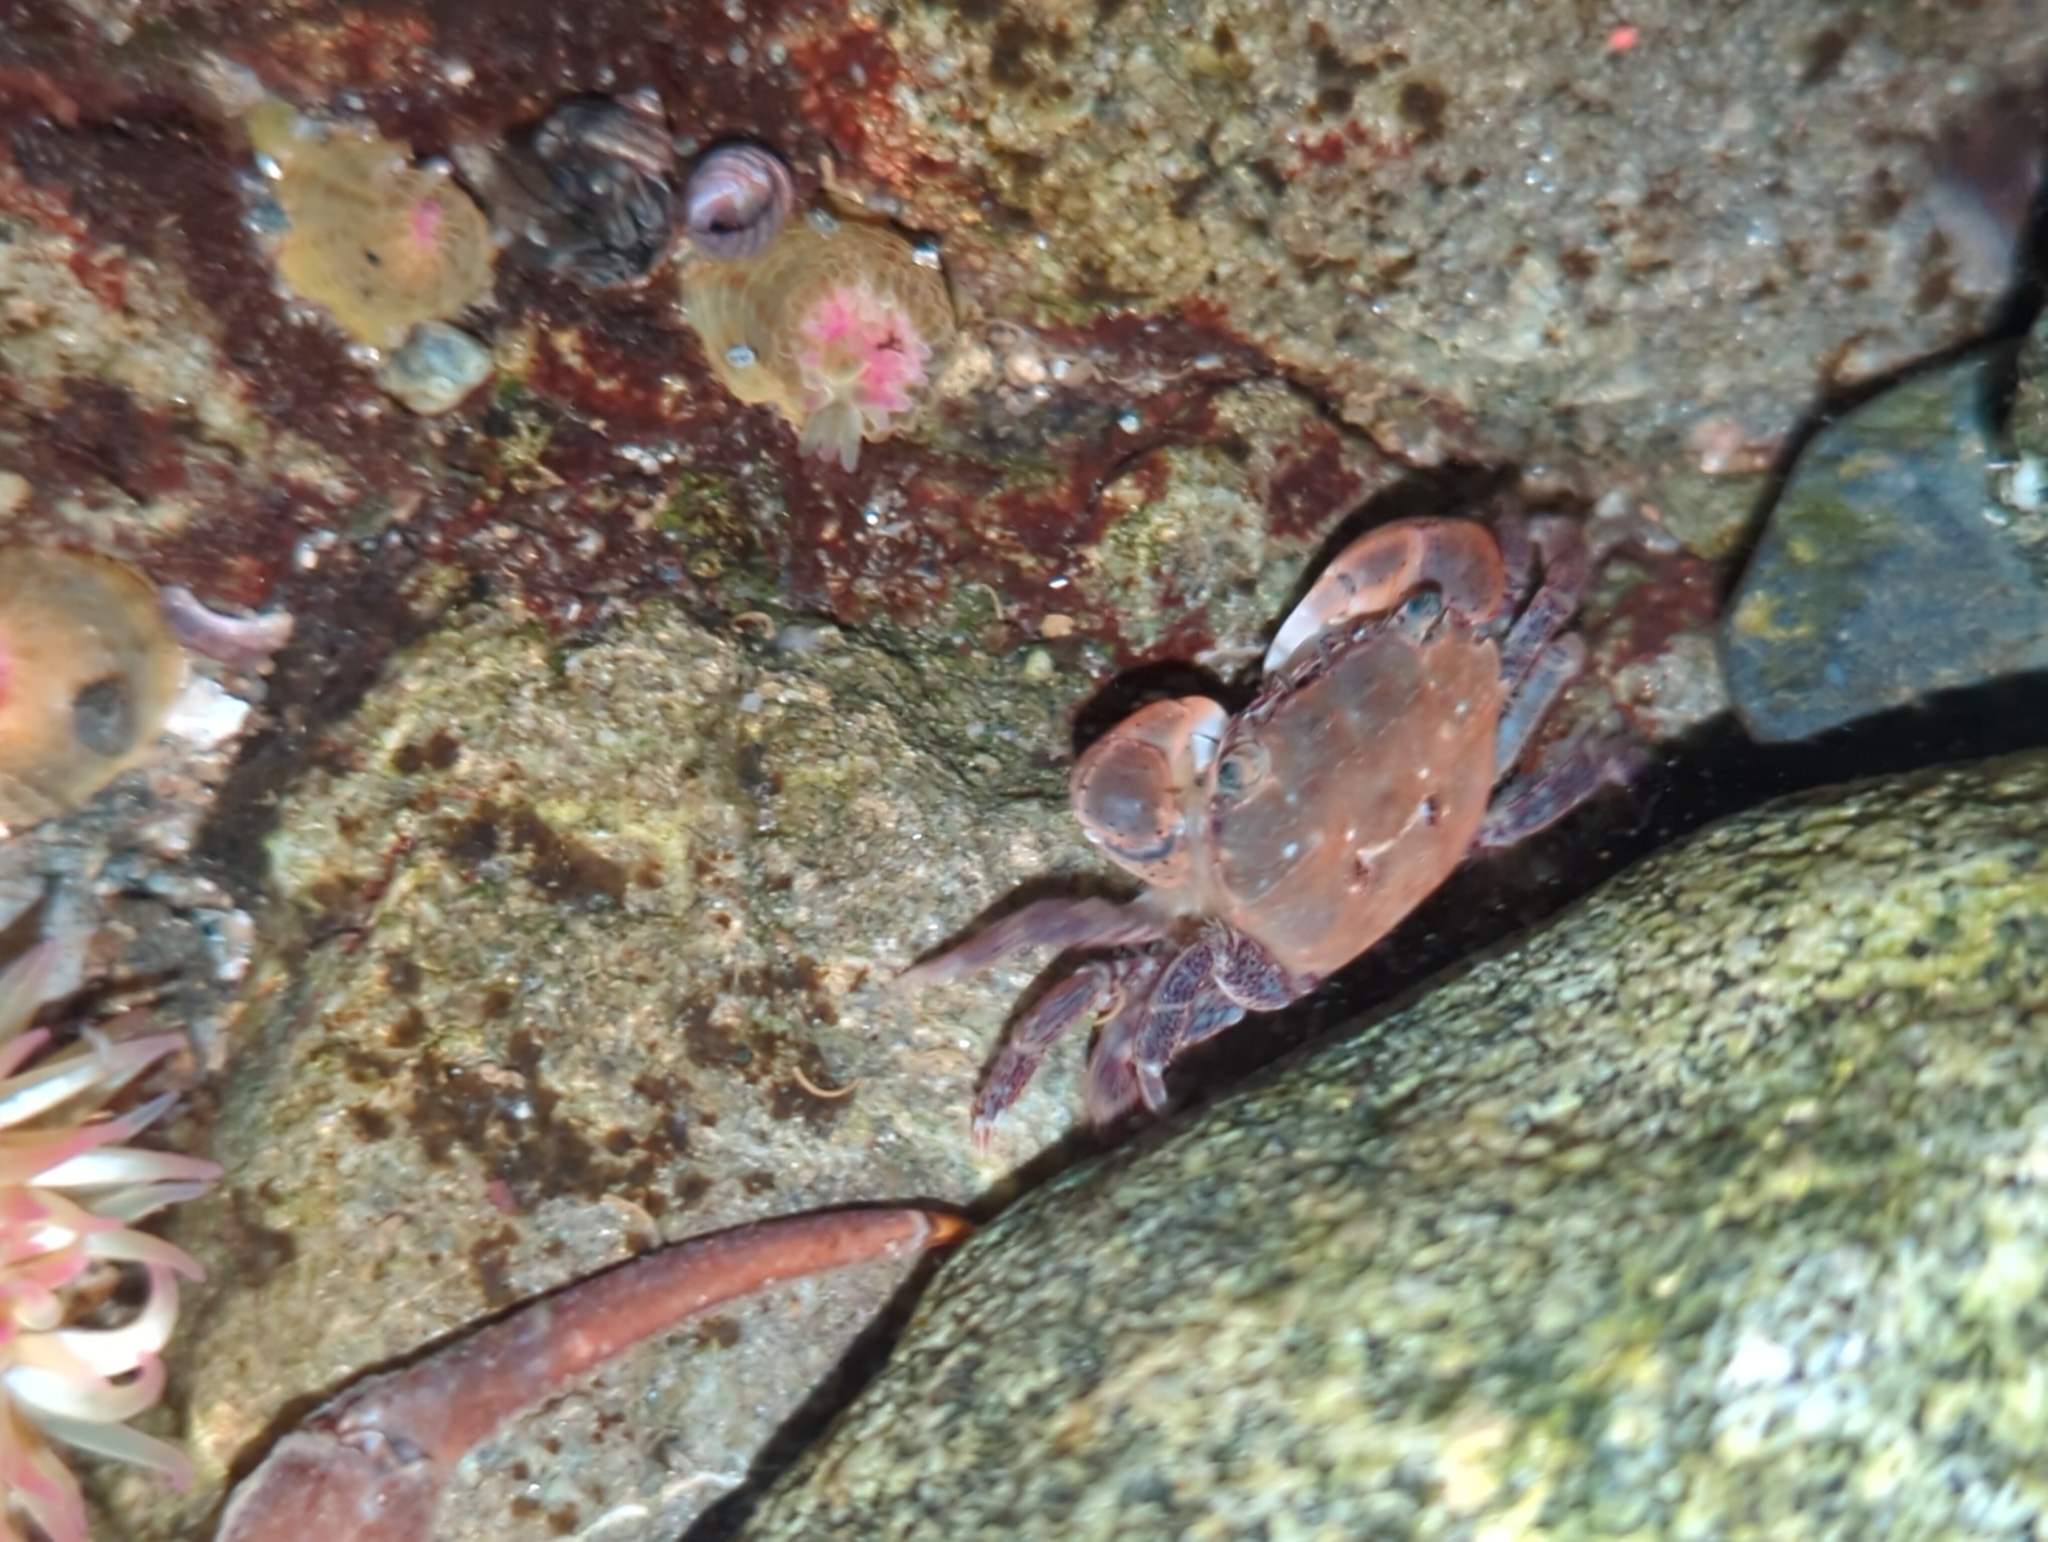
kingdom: Animalia
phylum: Arthropoda
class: Malacostraca
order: Decapoda
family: Varunidae
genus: Hemigrapsus
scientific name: Hemigrapsus oregonensis
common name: Yellow shore crab
